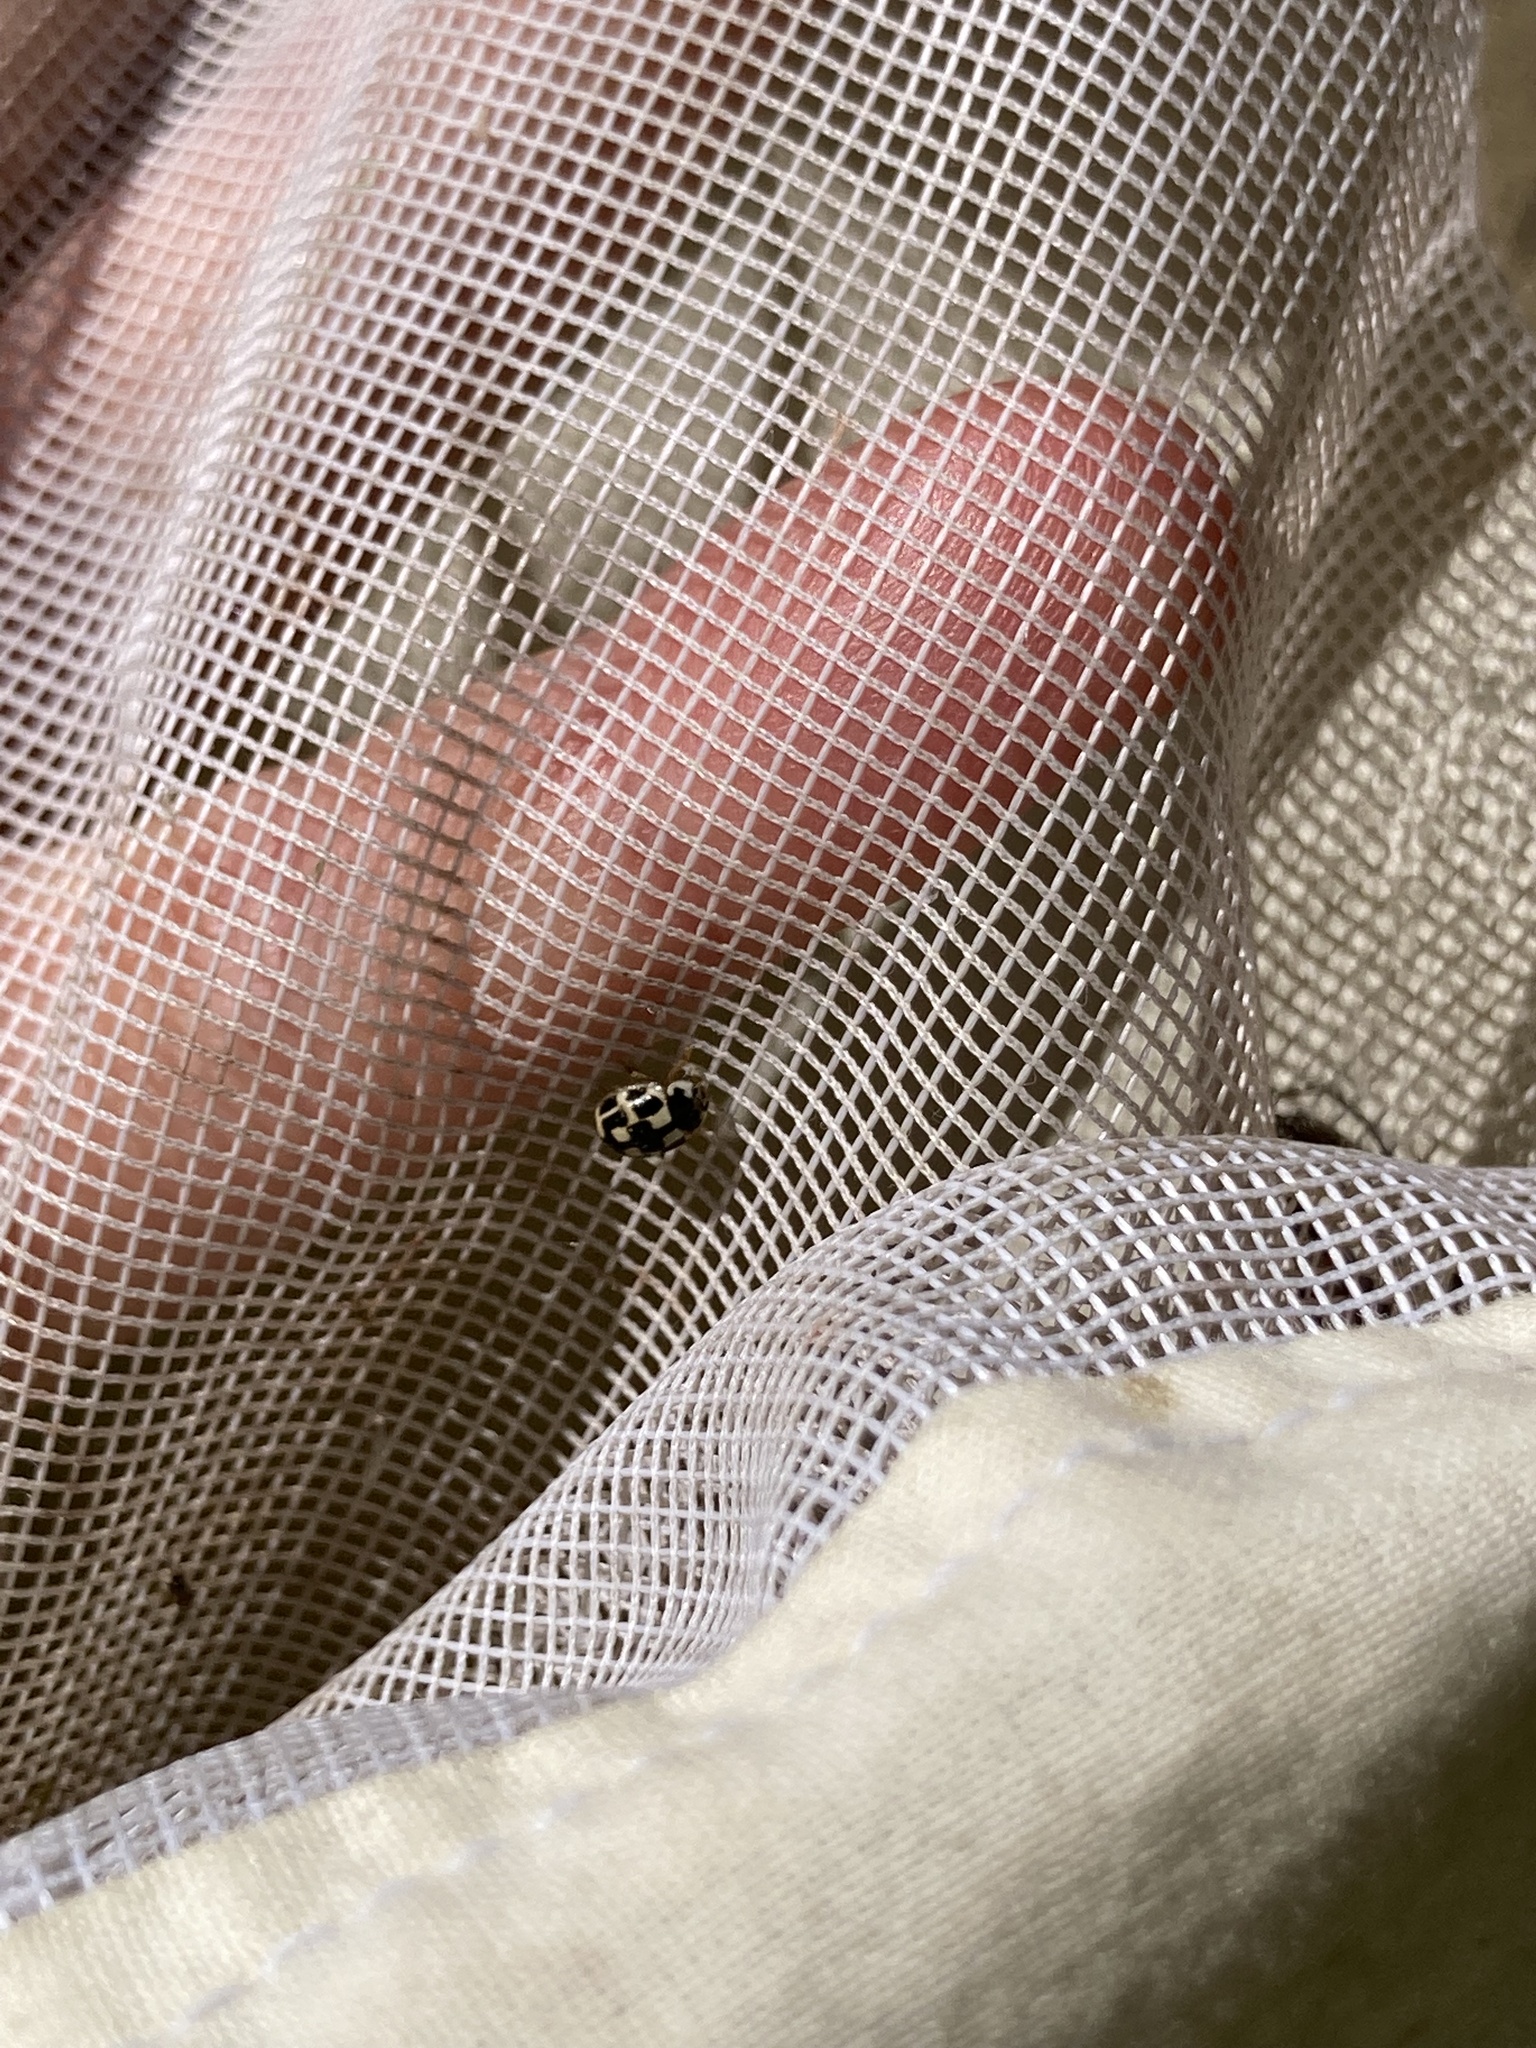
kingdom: Animalia
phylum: Arthropoda
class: Insecta
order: Coleoptera
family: Coccinellidae
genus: Propylaea
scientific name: Propylaea quatuordecimpunctata
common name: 14-spotted ladybird beetle
